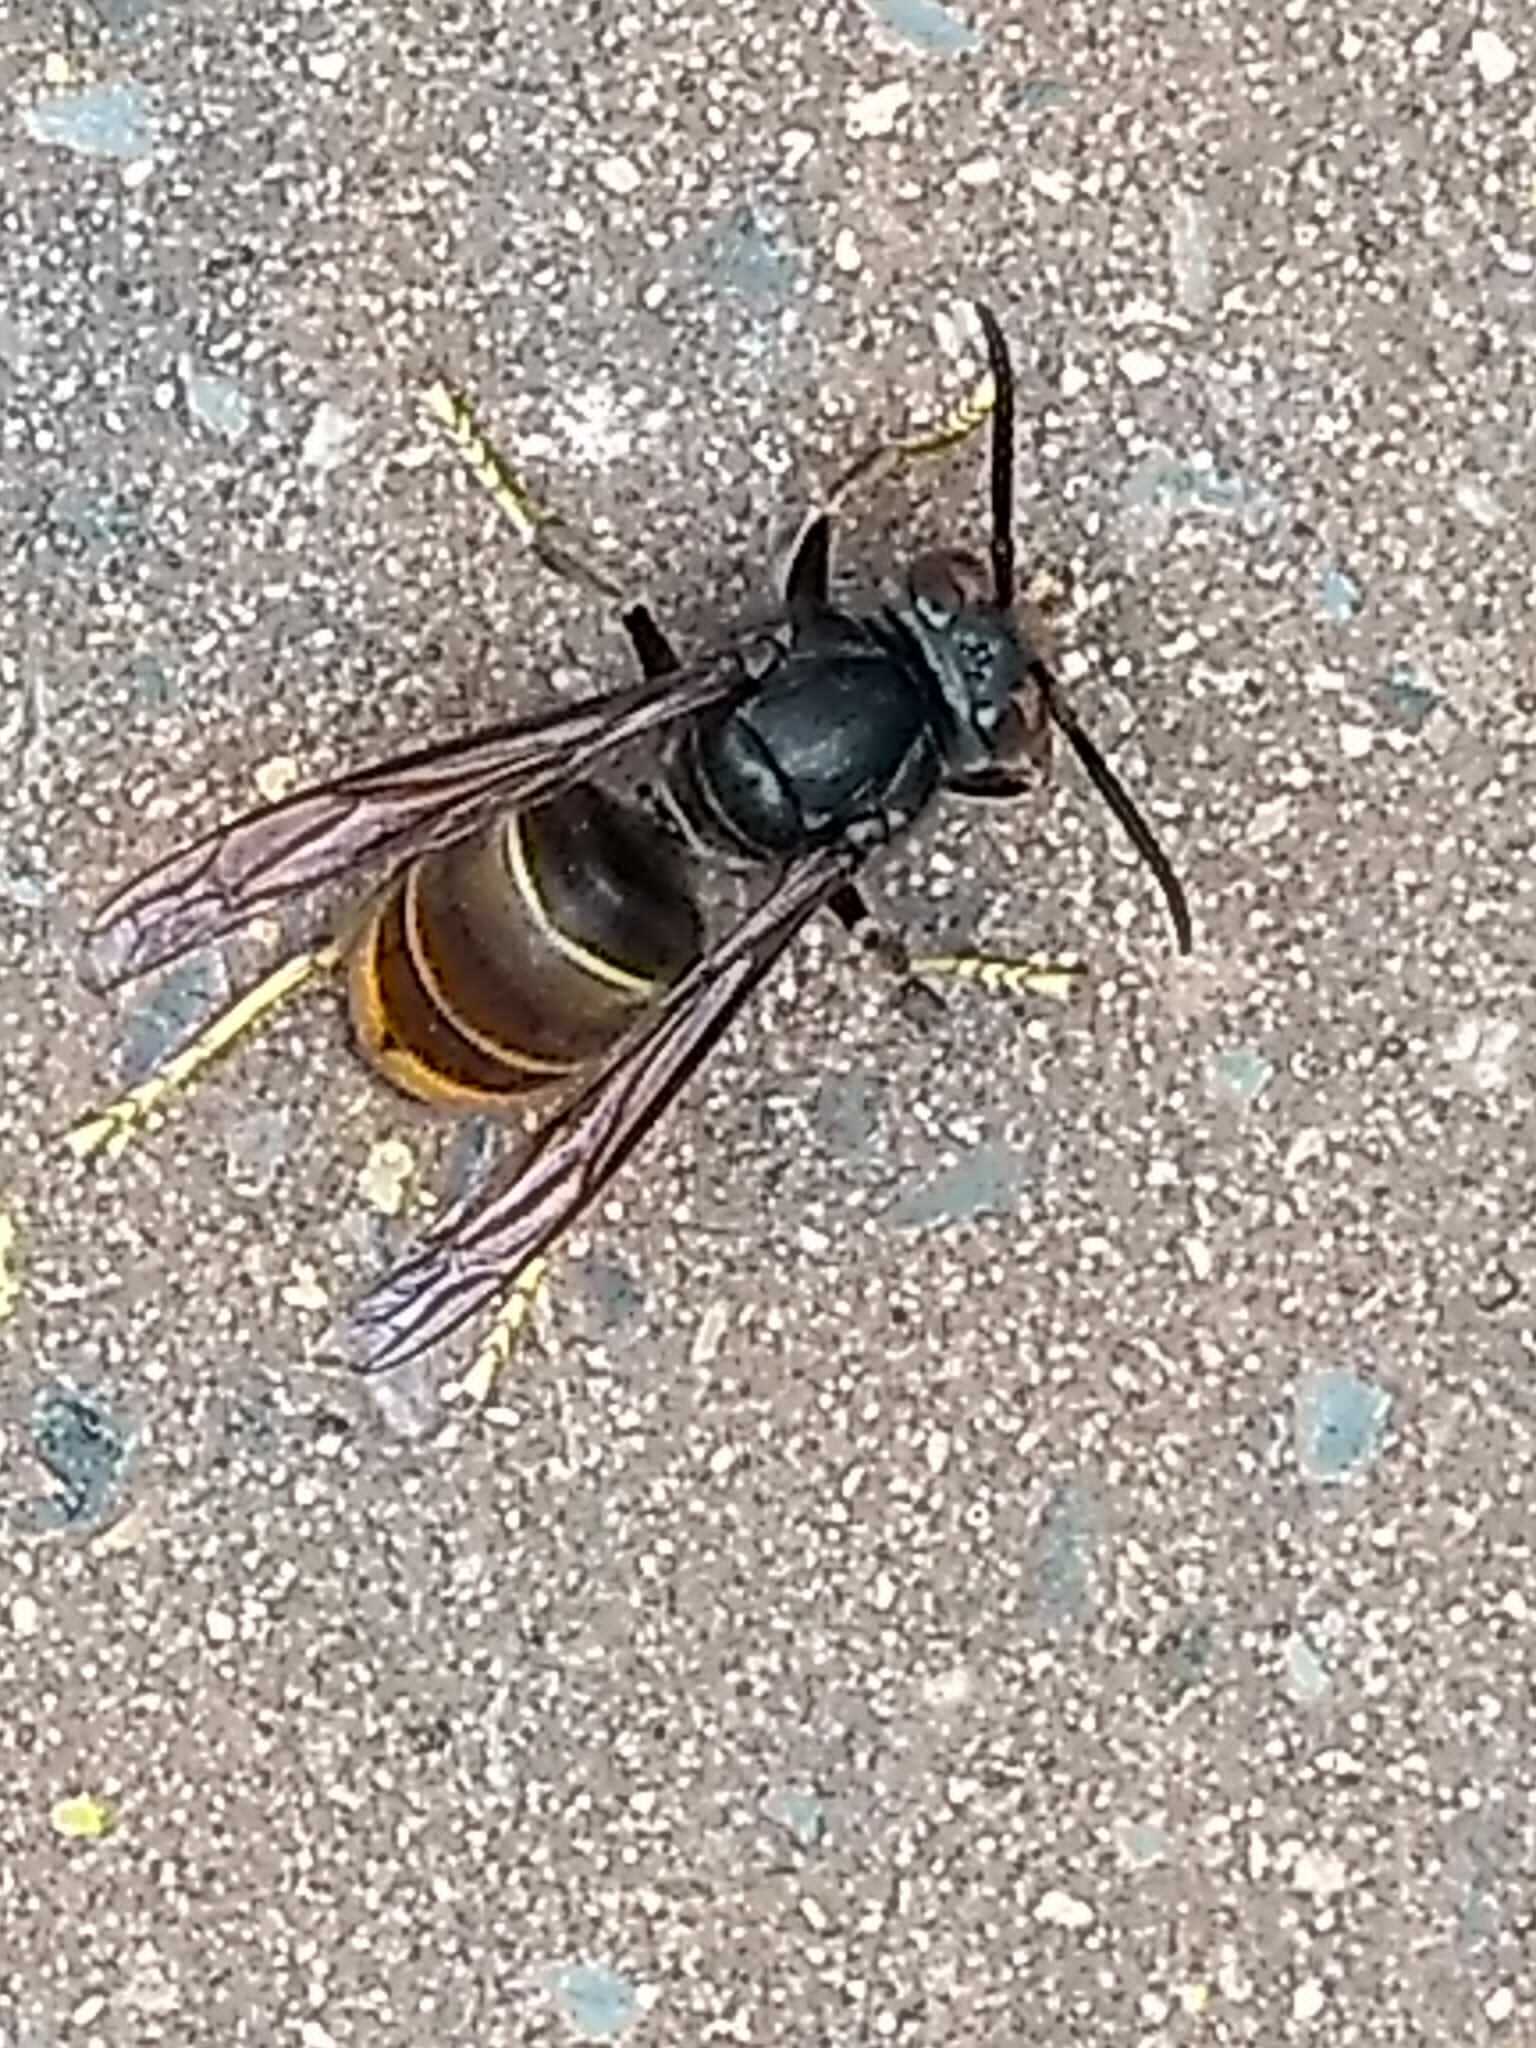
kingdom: Animalia
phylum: Arthropoda
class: Insecta
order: Hymenoptera
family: Vespidae
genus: Vespa
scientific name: Vespa velutina
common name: Asian hornet
